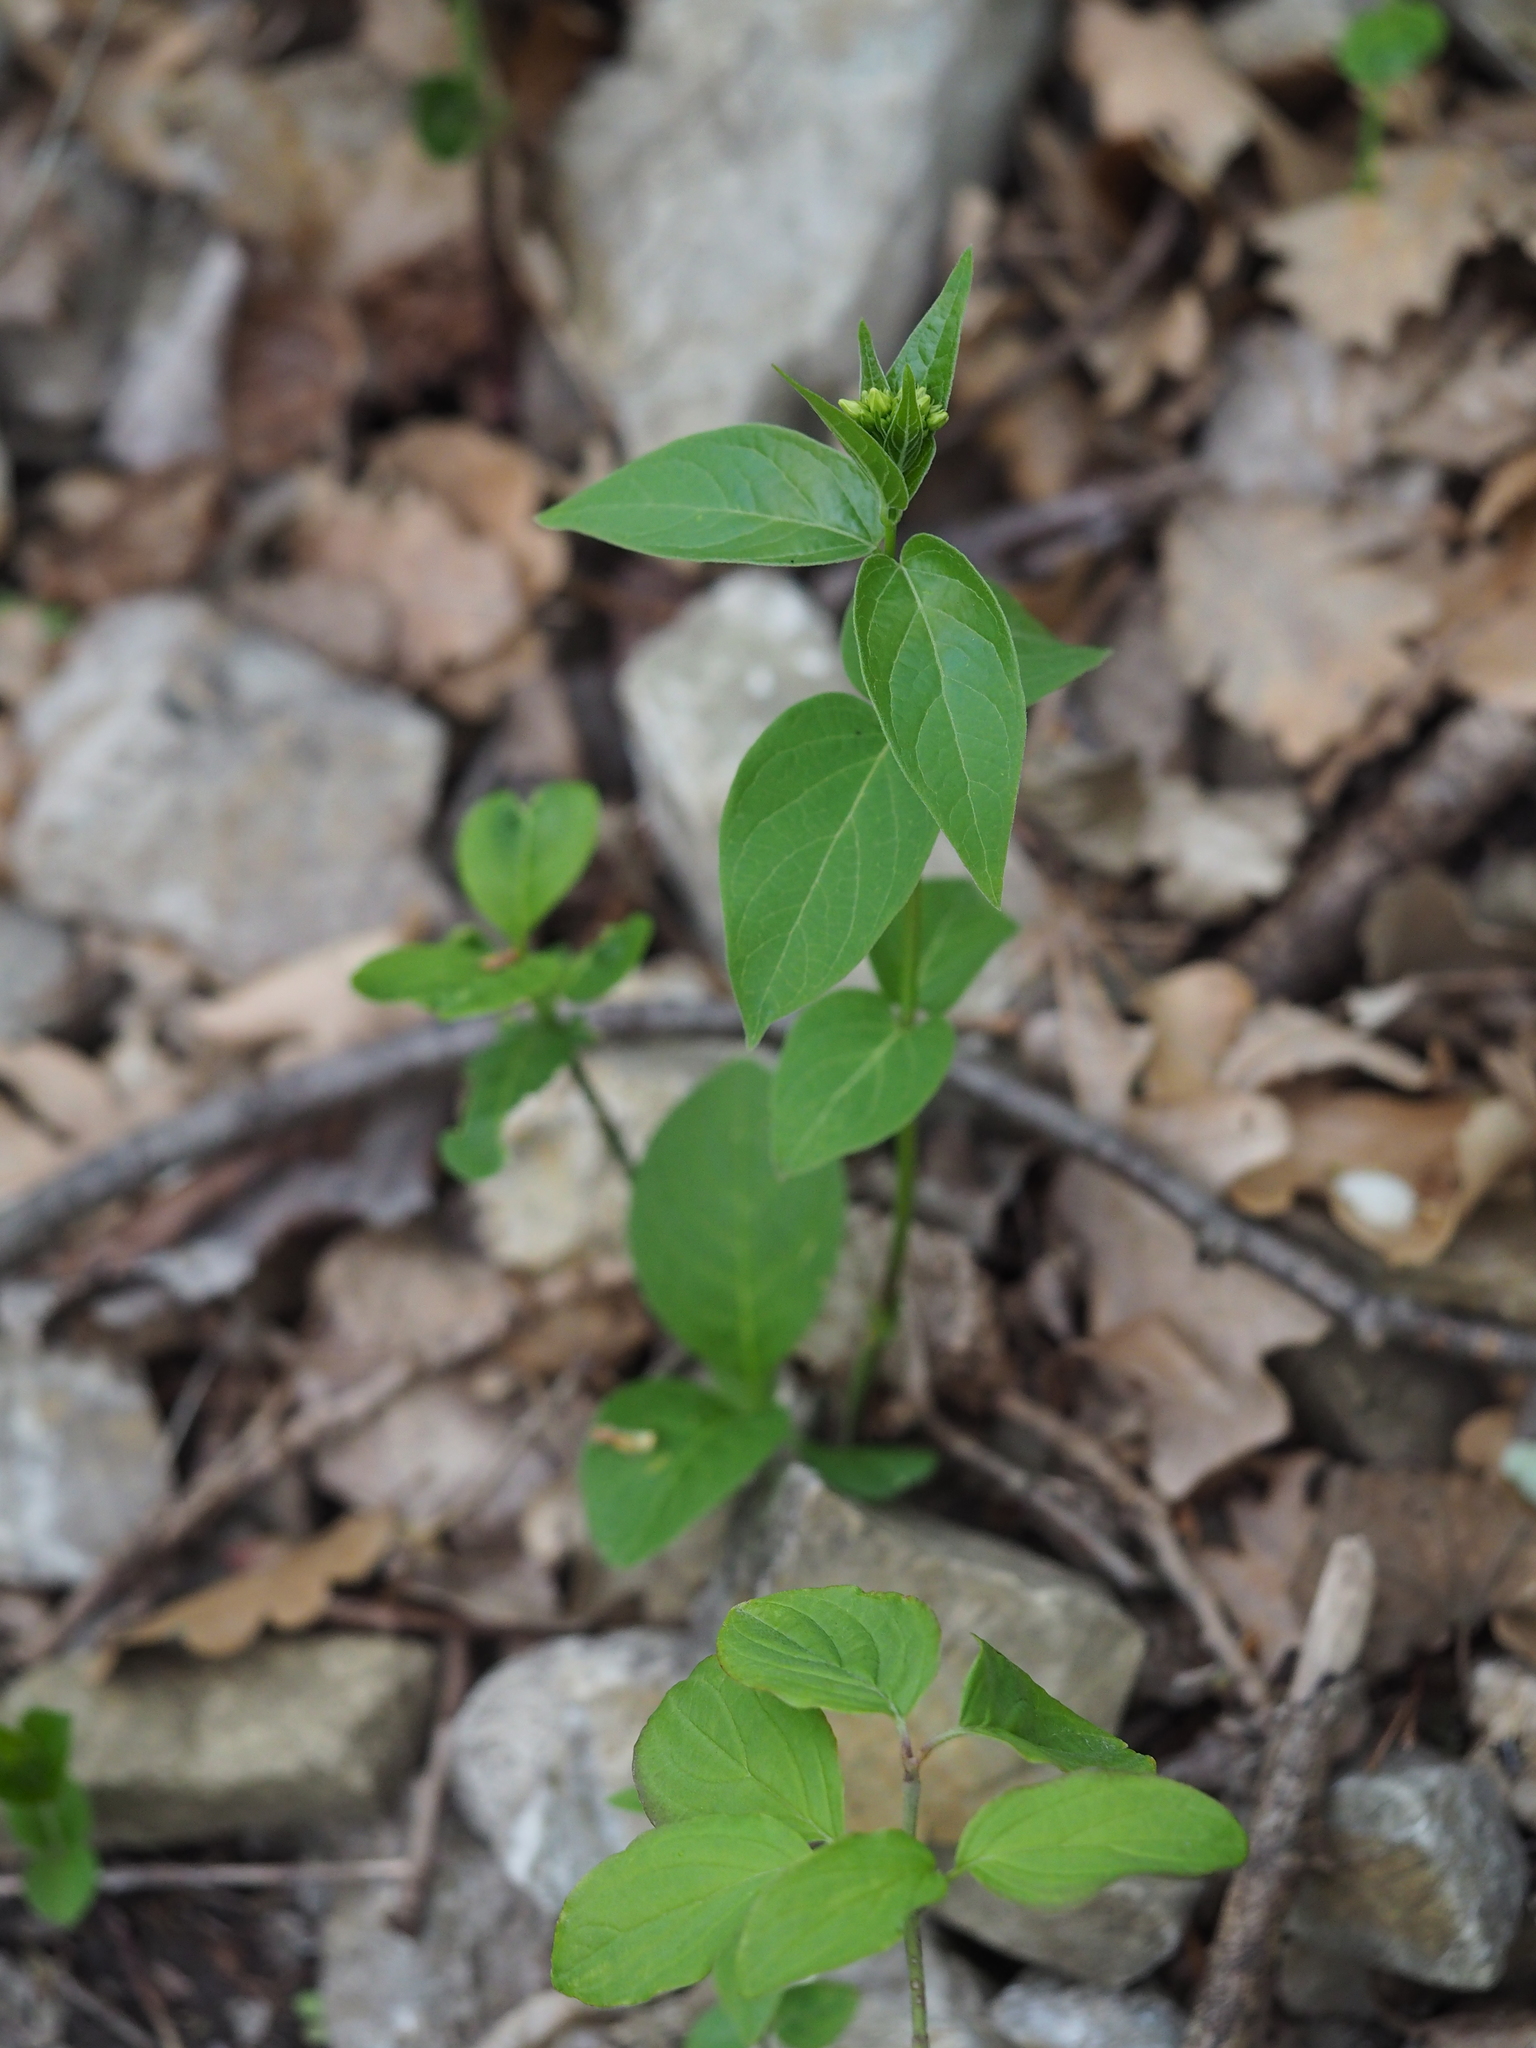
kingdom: Plantae
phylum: Tracheophyta
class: Magnoliopsida
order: Gentianales
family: Apocynaceae
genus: Vincetoxicum
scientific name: Vincetoxicum hirundinaria
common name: White swallowwort
